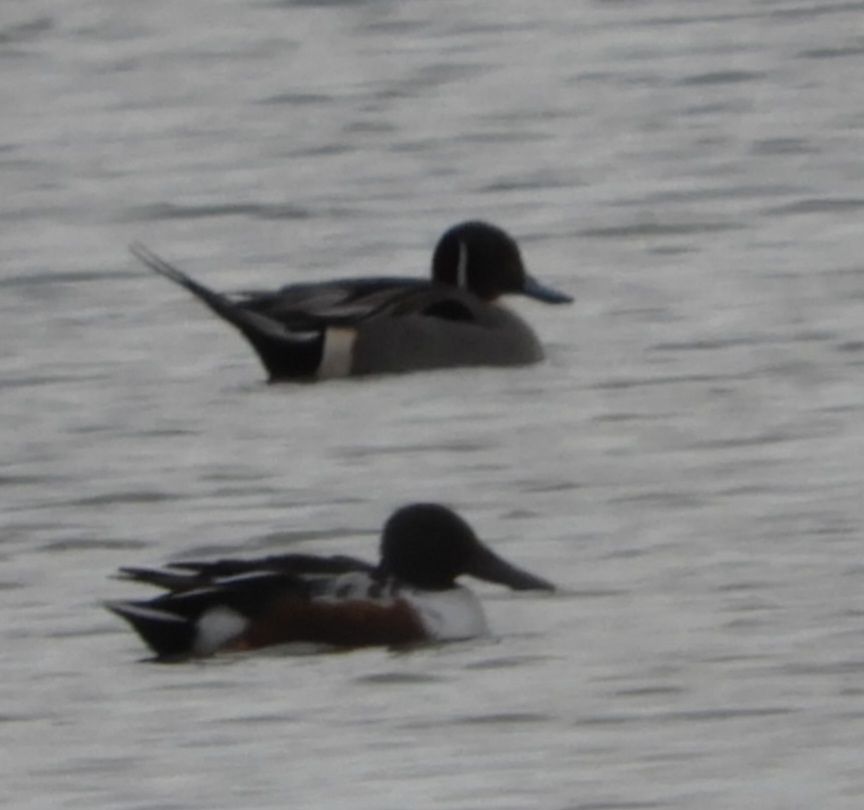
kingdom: Animalia
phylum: Chordata
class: Aves
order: Anseriformes
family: Anatidae
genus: Spatula
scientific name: Spatula clypeata
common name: Northern shoveler
